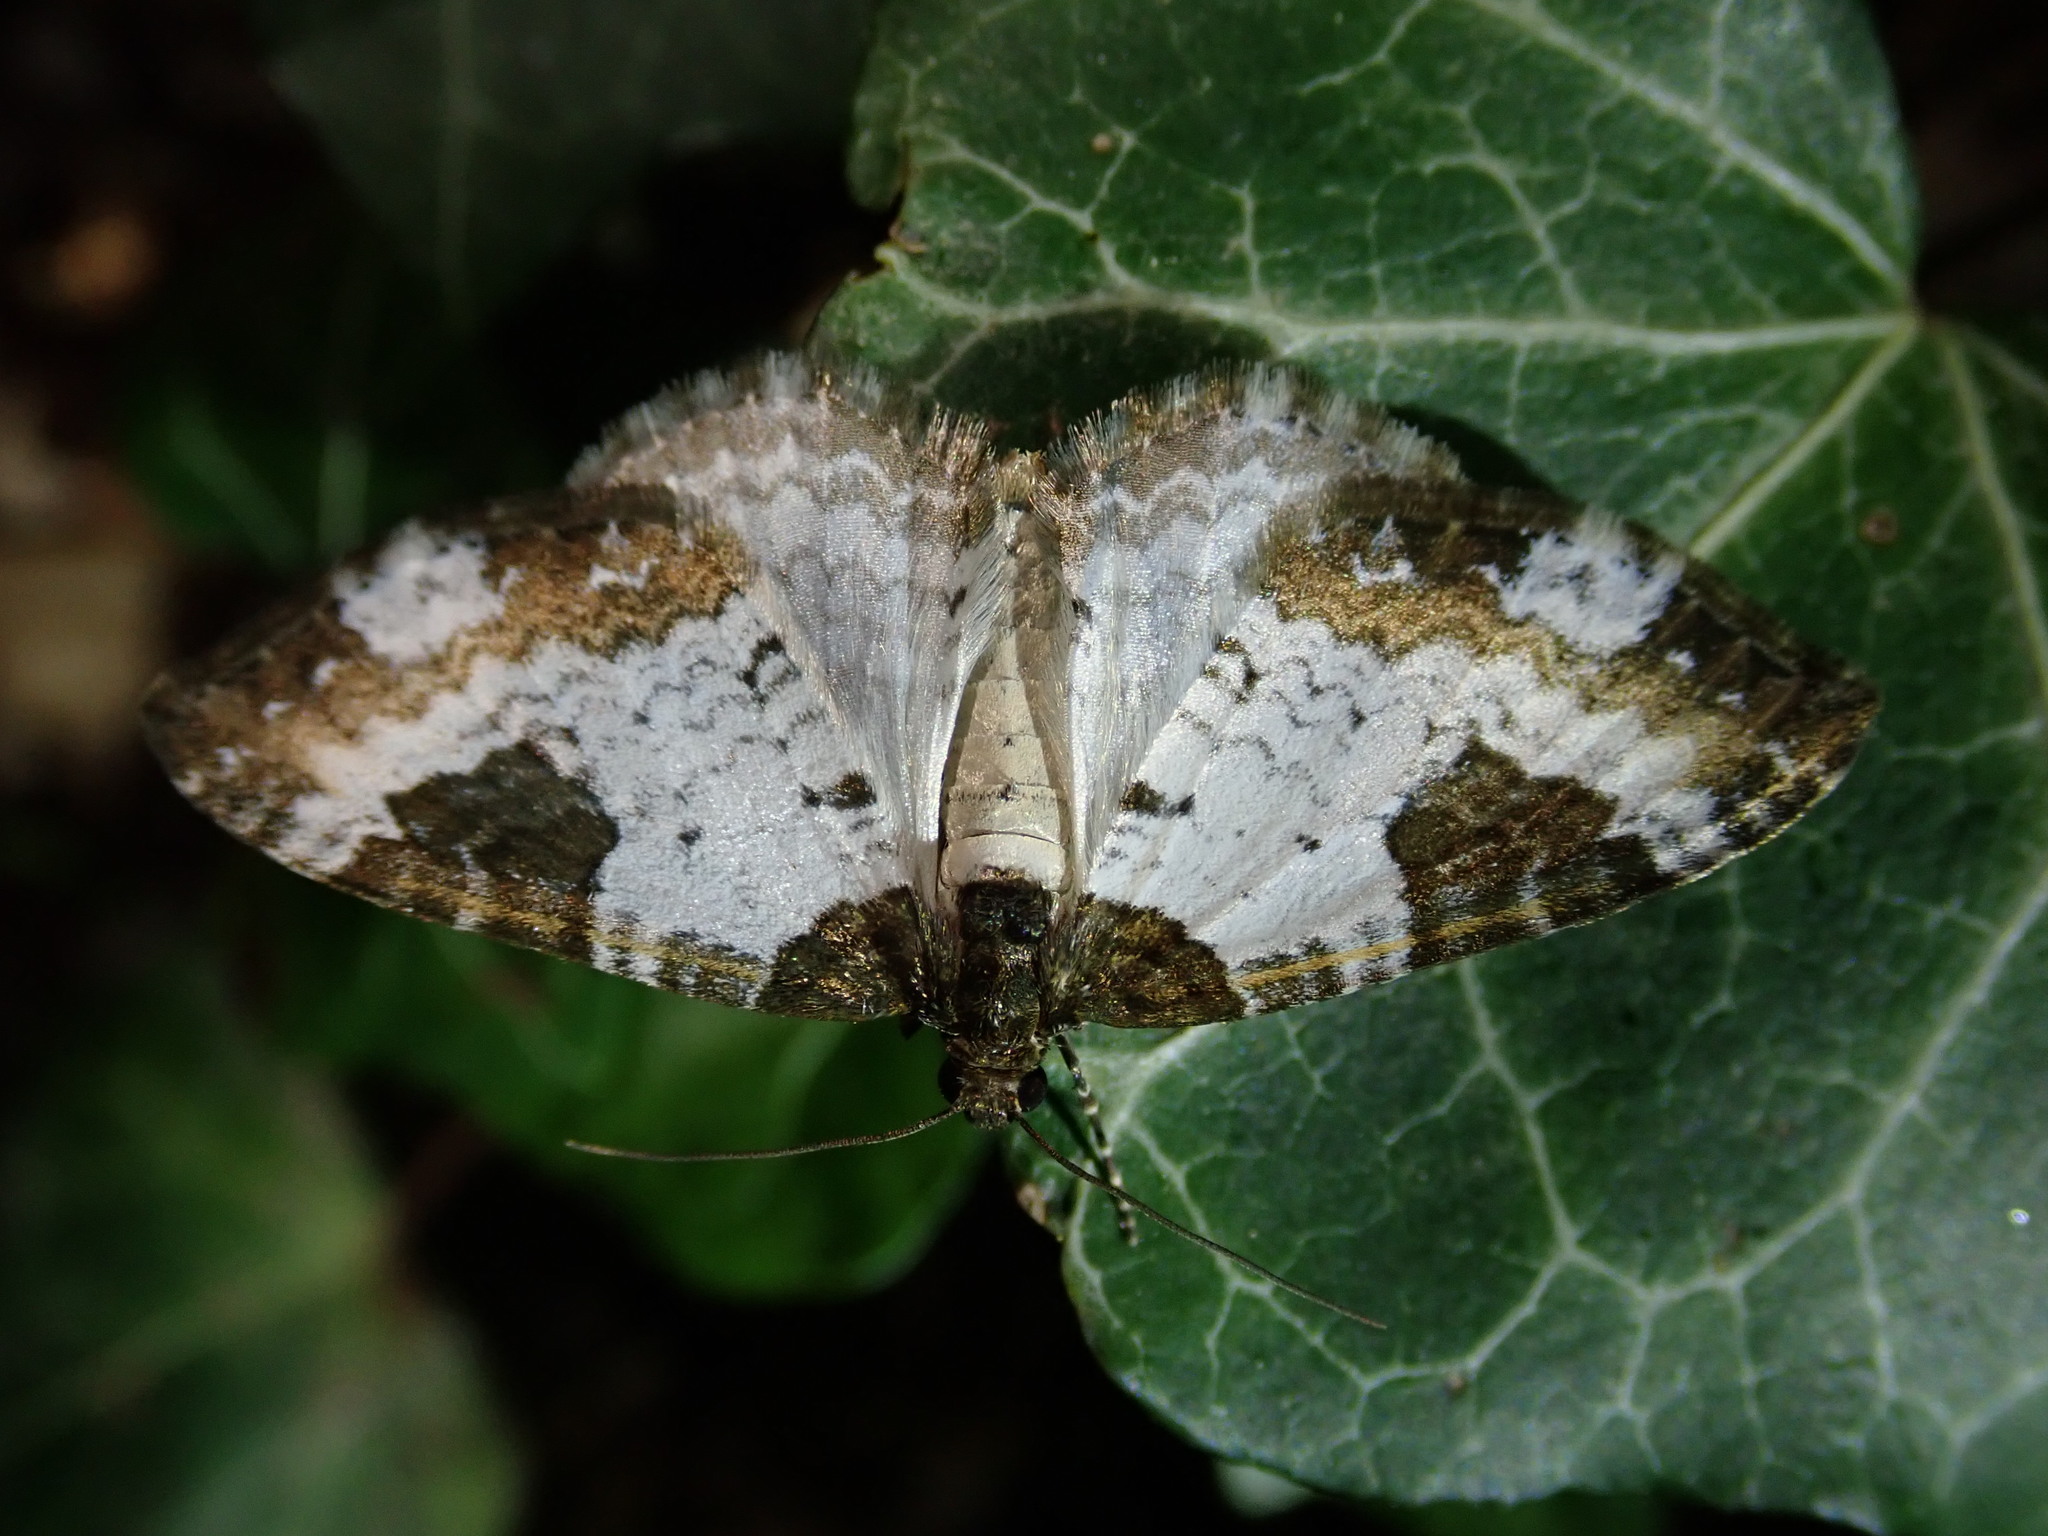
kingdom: Animalia
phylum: Arthropoda
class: Insecta
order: Lepidoptera
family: Geometridae
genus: Melanthia
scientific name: Melanthia procellata
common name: Pretty chalk carpet
